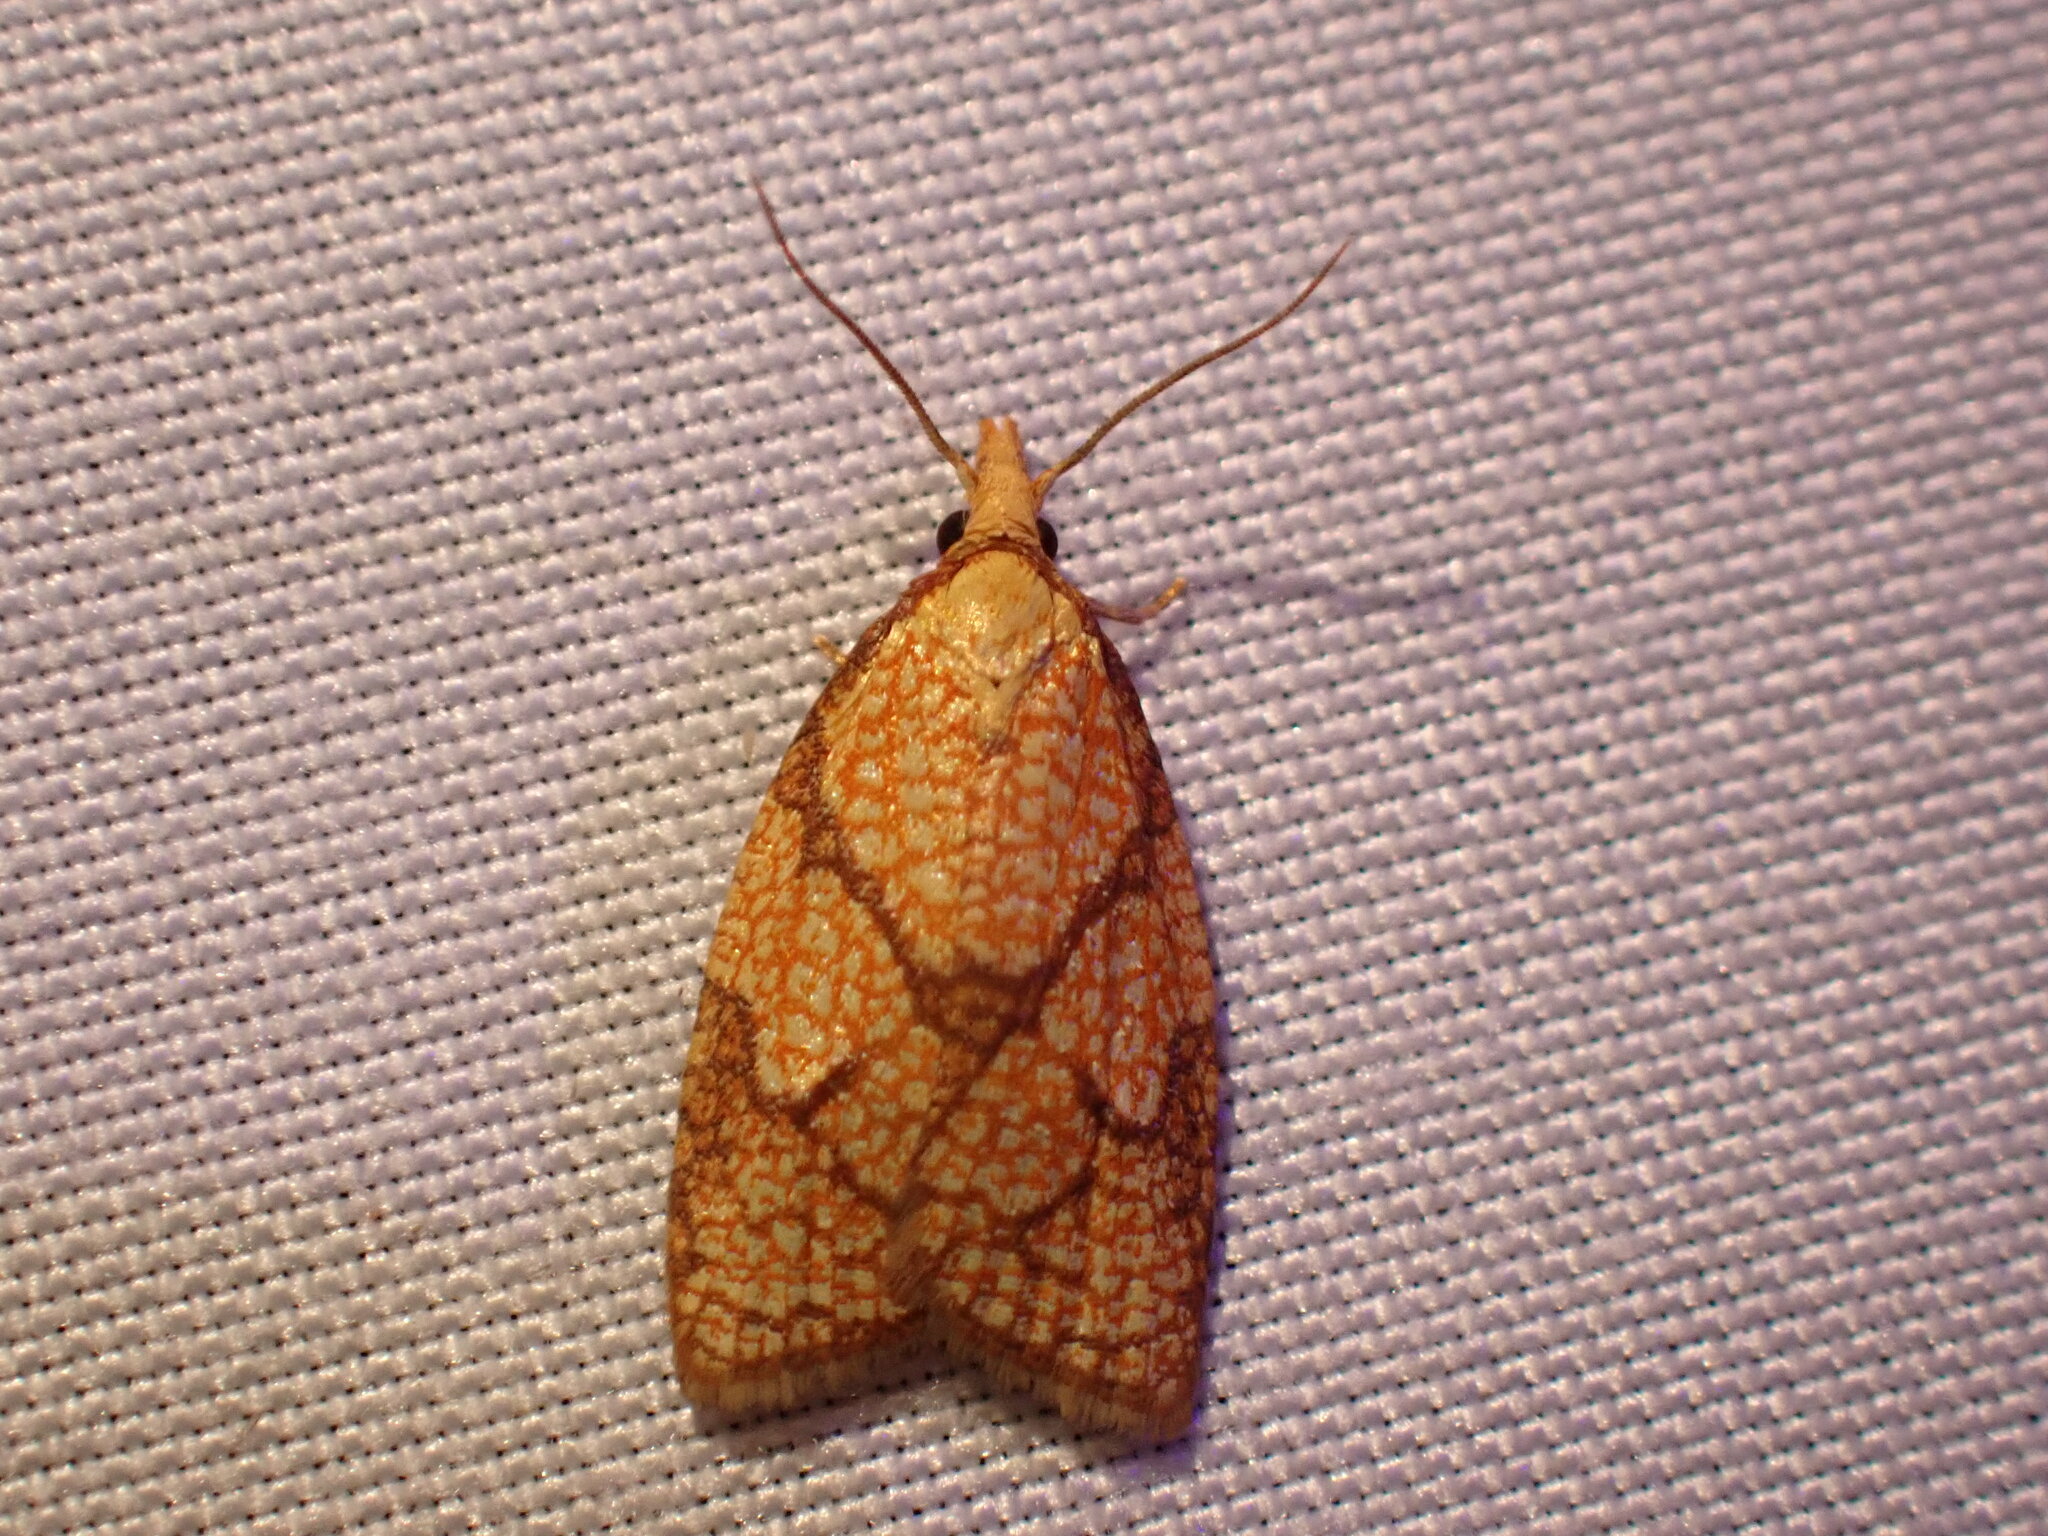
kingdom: Animalia
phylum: Arthropoda
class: Insecta
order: Lepidoptera
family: Tortricidae
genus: Cenopis
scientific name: Cenopis reticulatana
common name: Reticulated fruitworm moth
